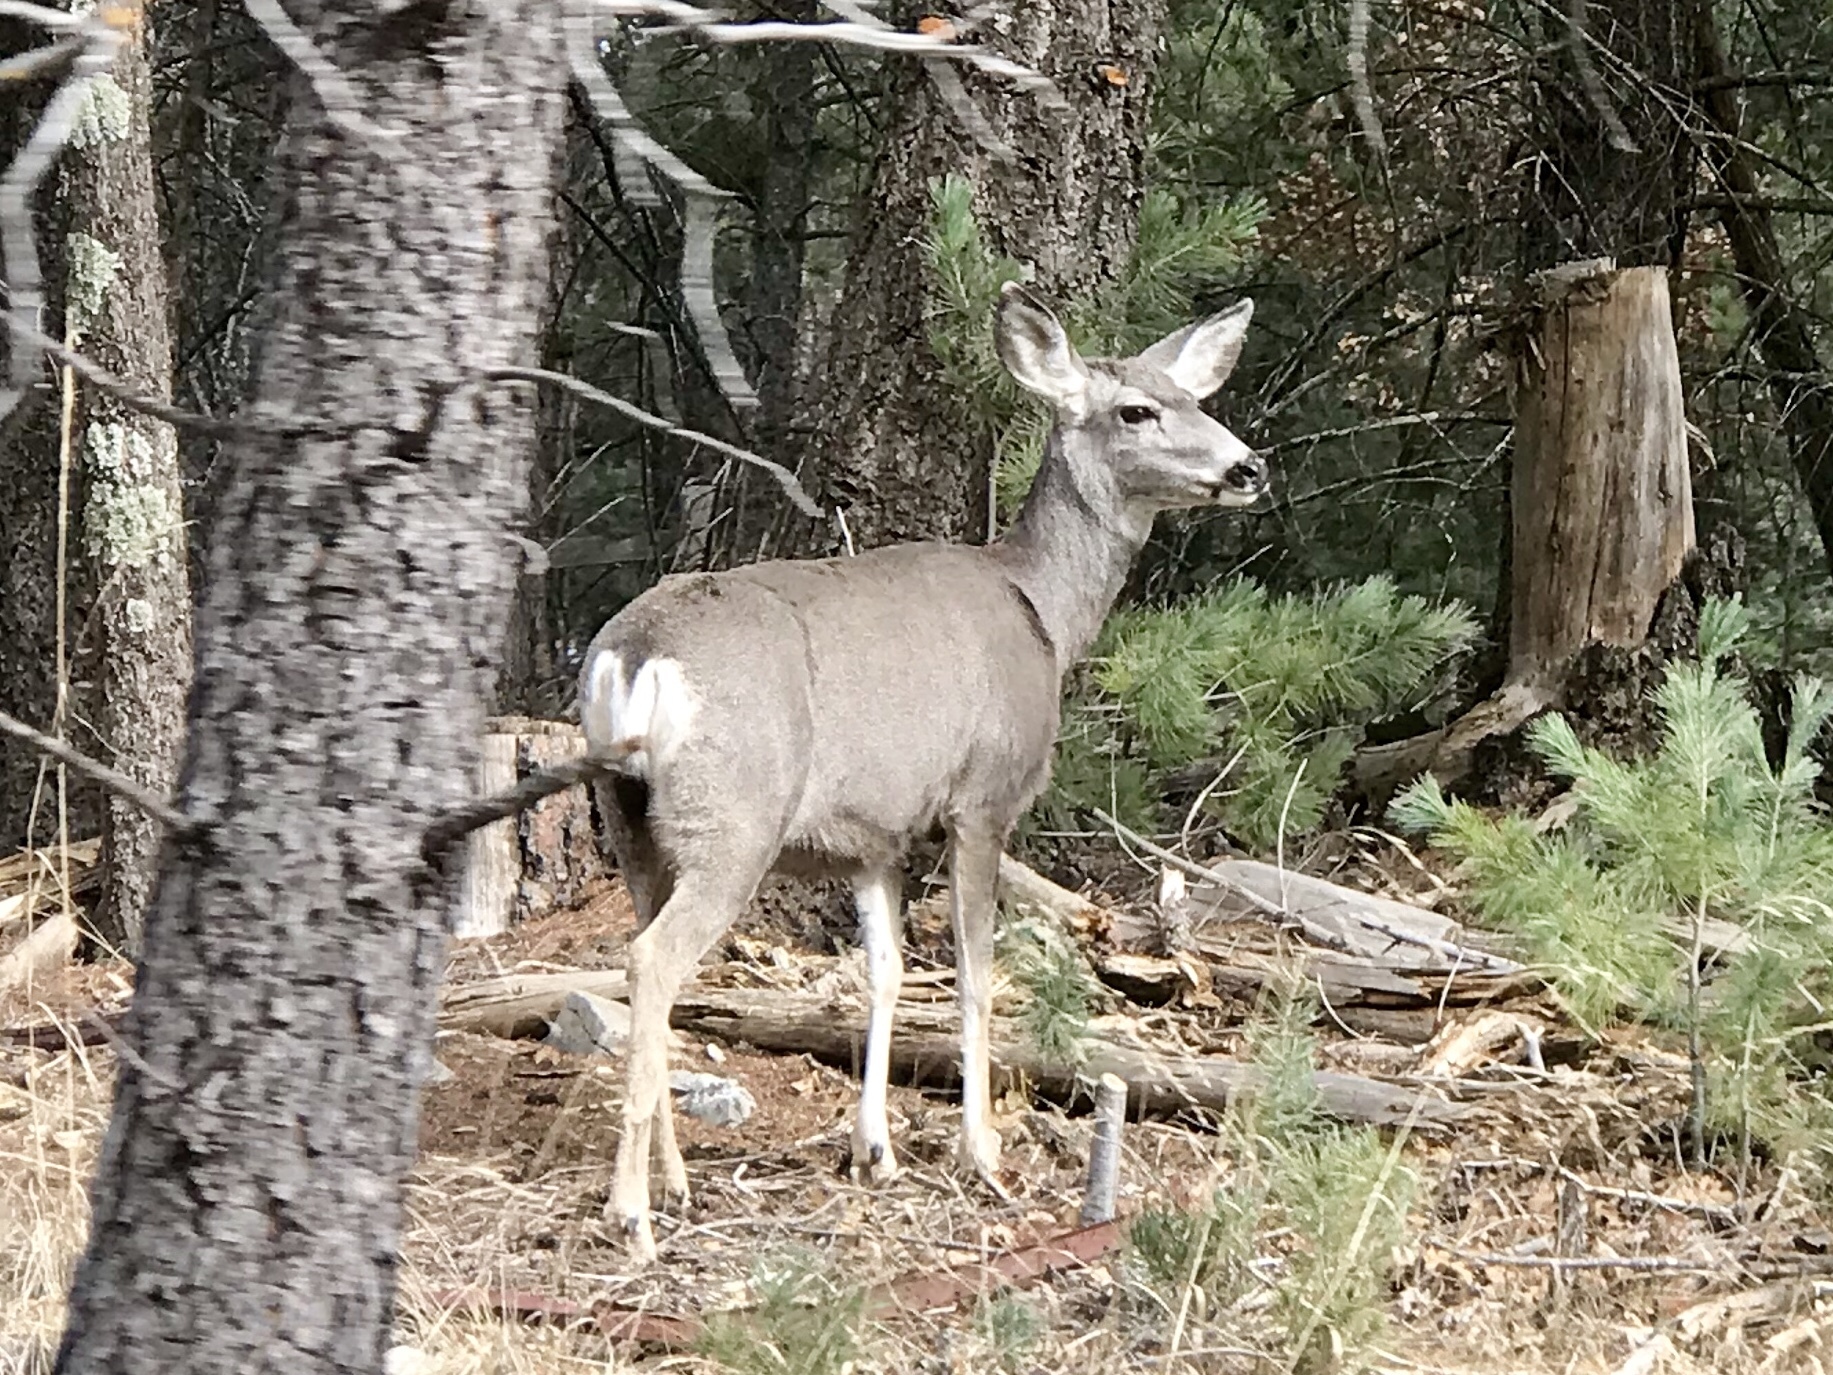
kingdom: Animalia
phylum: Chordata
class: Mammalia
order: Artiodactyla
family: Cervidae
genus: Odocoileus
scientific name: Odocoileus hemionus
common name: Mule deer
